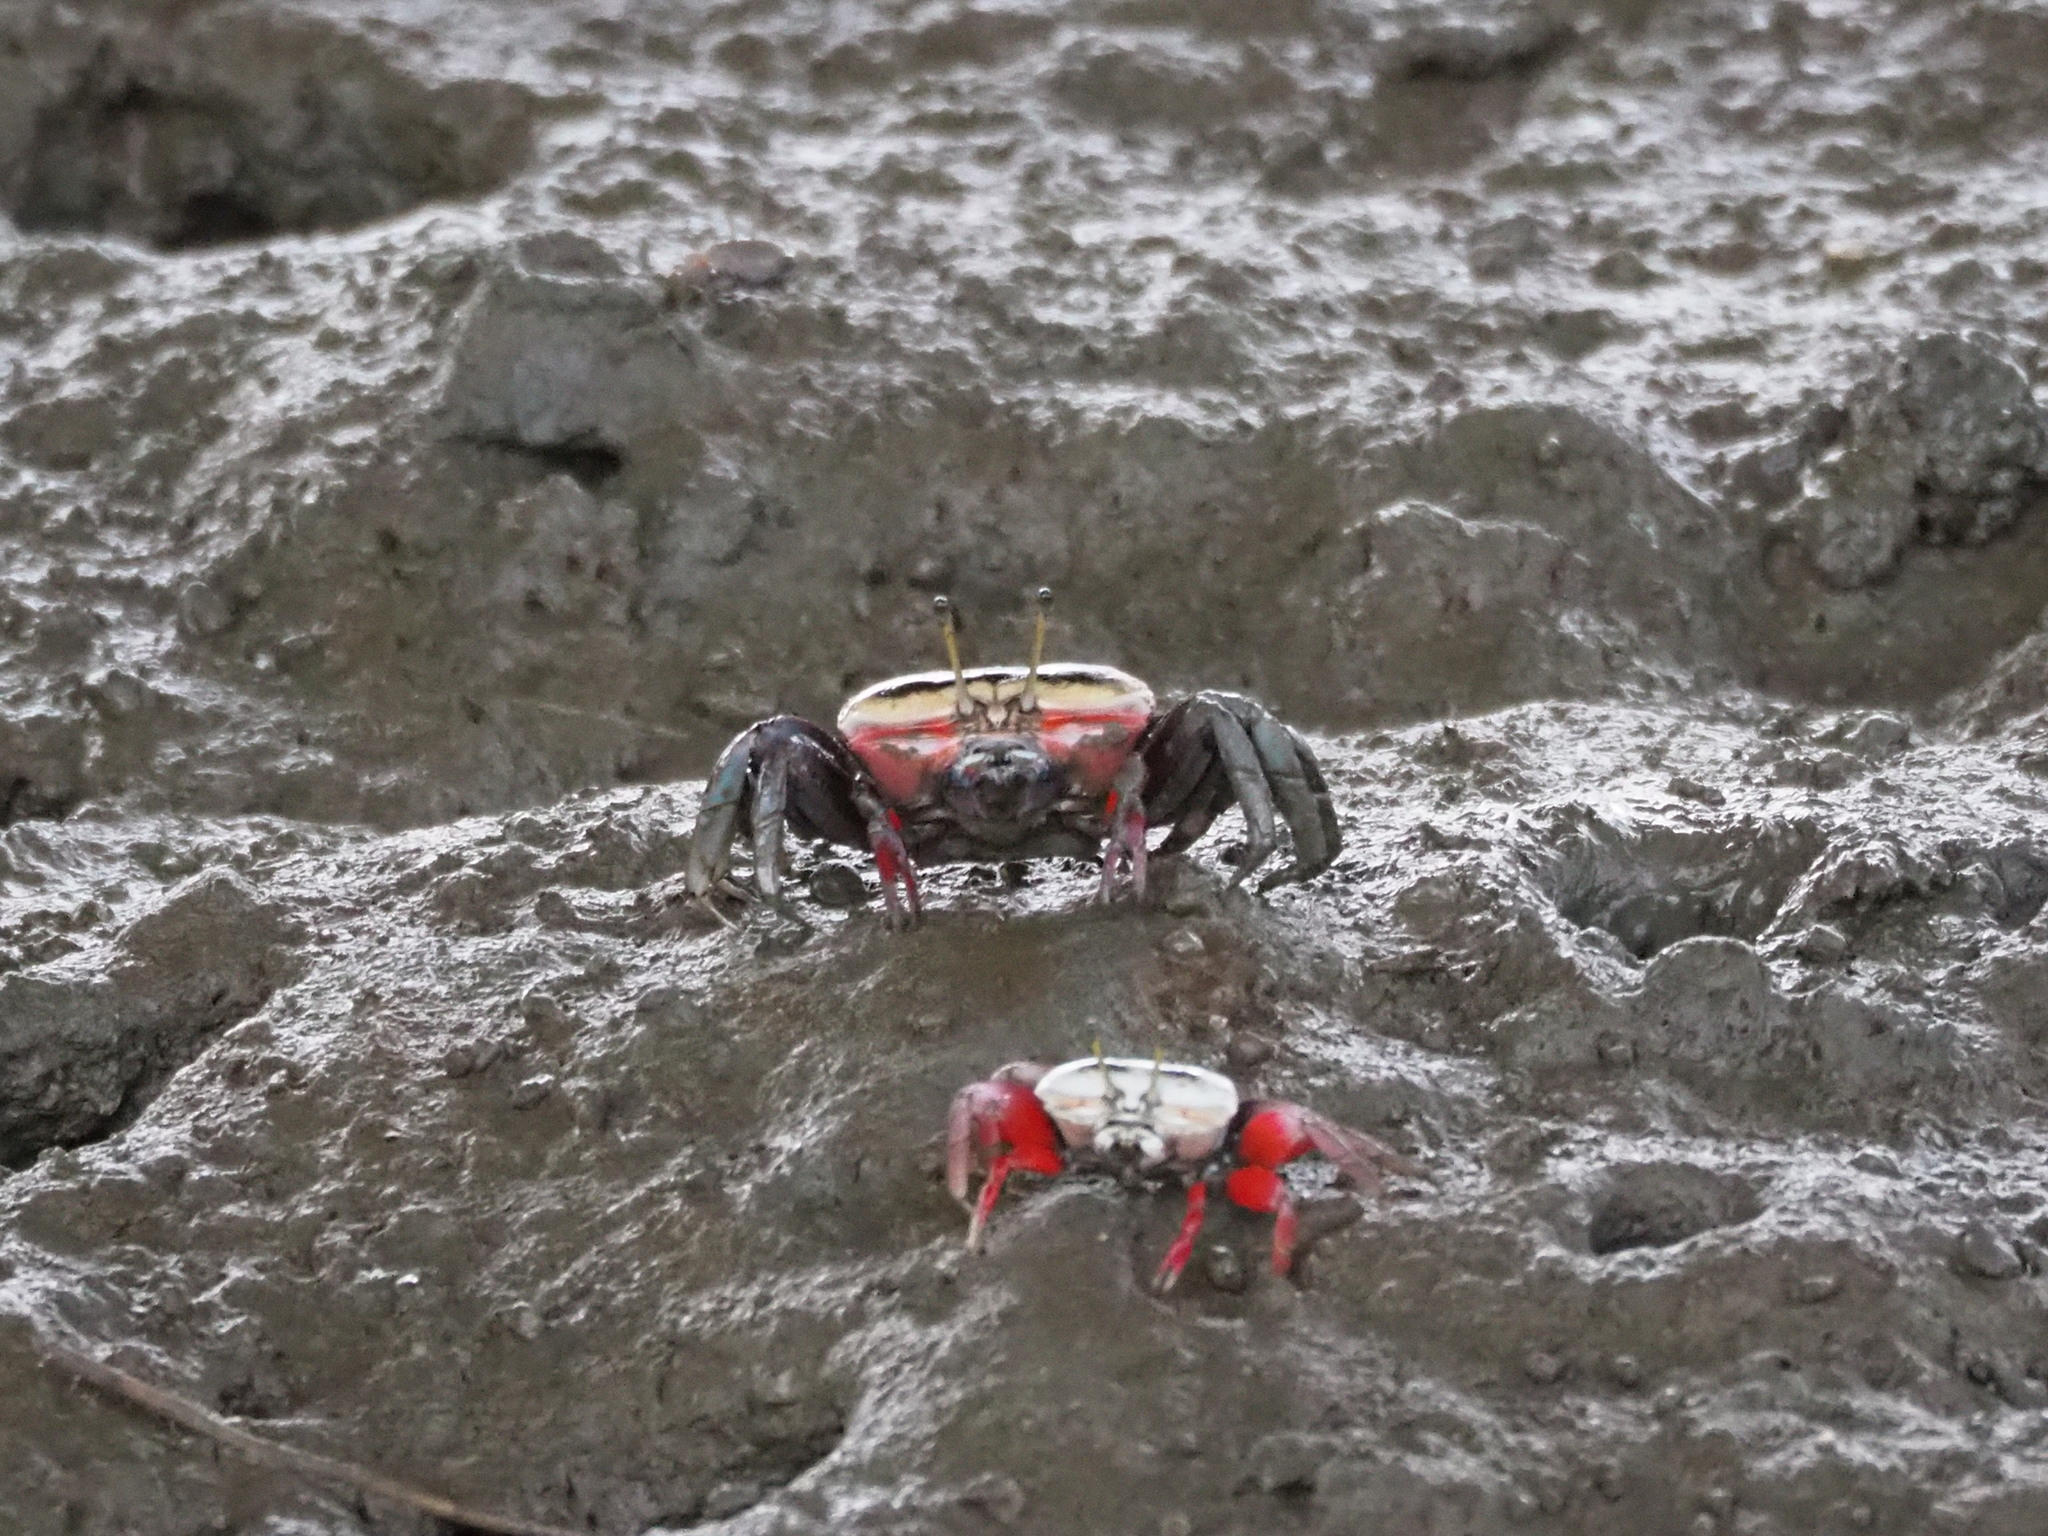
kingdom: Animalia
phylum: Arthropoda
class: Malacostraca
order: Decapoda
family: Ocypodidae
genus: Tubuca
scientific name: Tubuca arcuata
